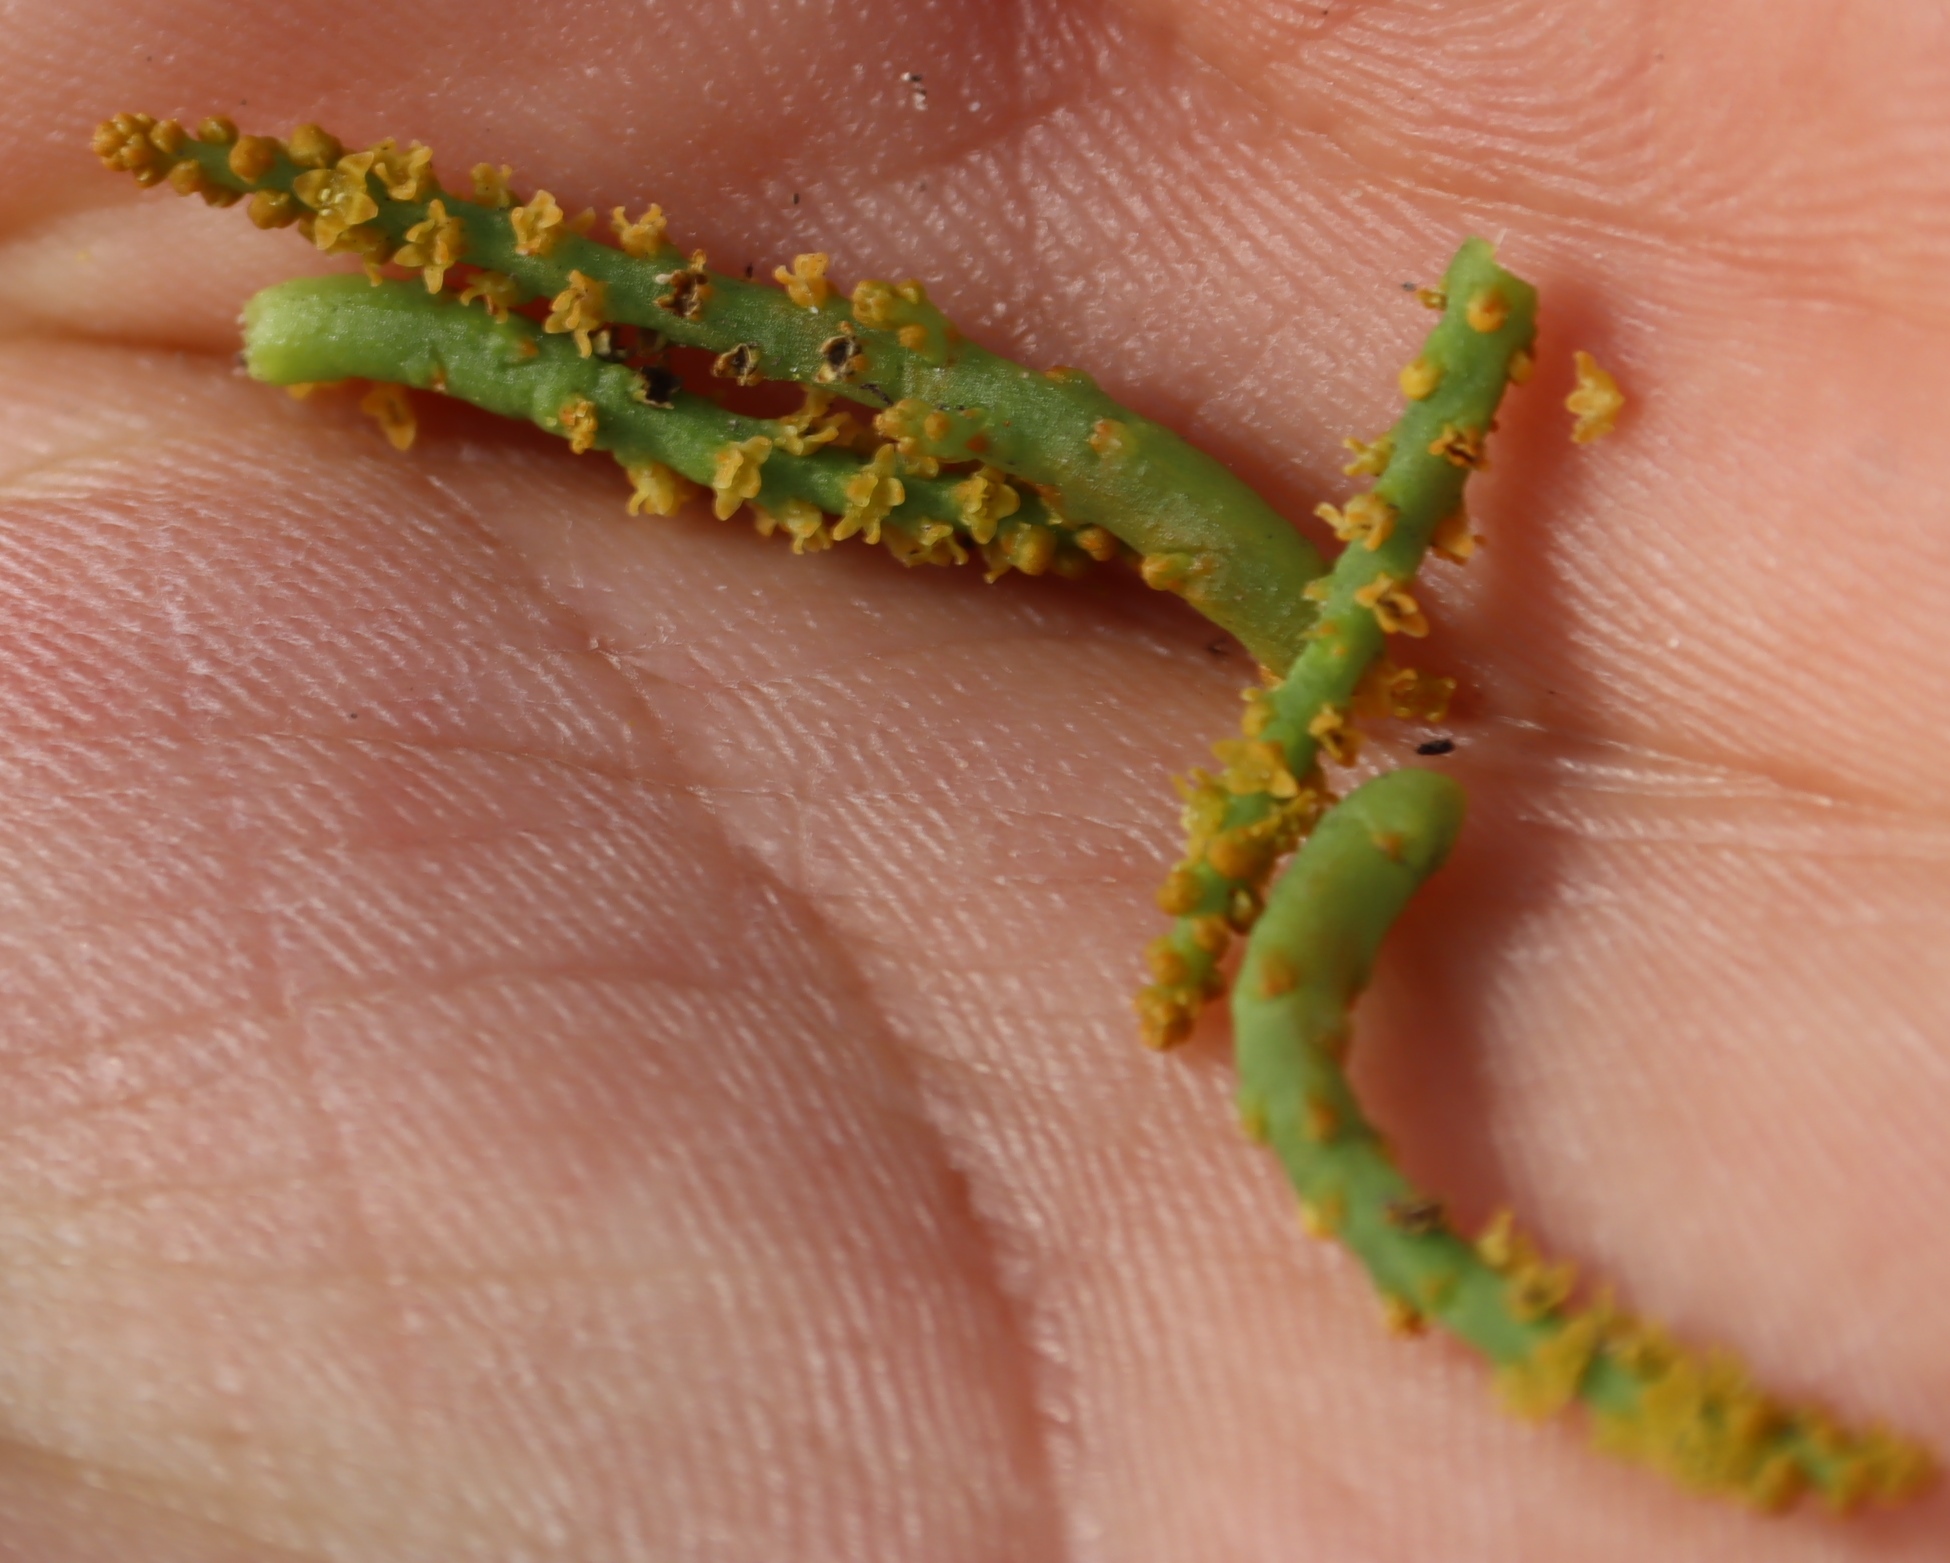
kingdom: Plantae
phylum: Tracheophyta
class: Magnoliopsida
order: Santalales
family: Thesiaceae
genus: Thesium
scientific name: Thesium fragile
